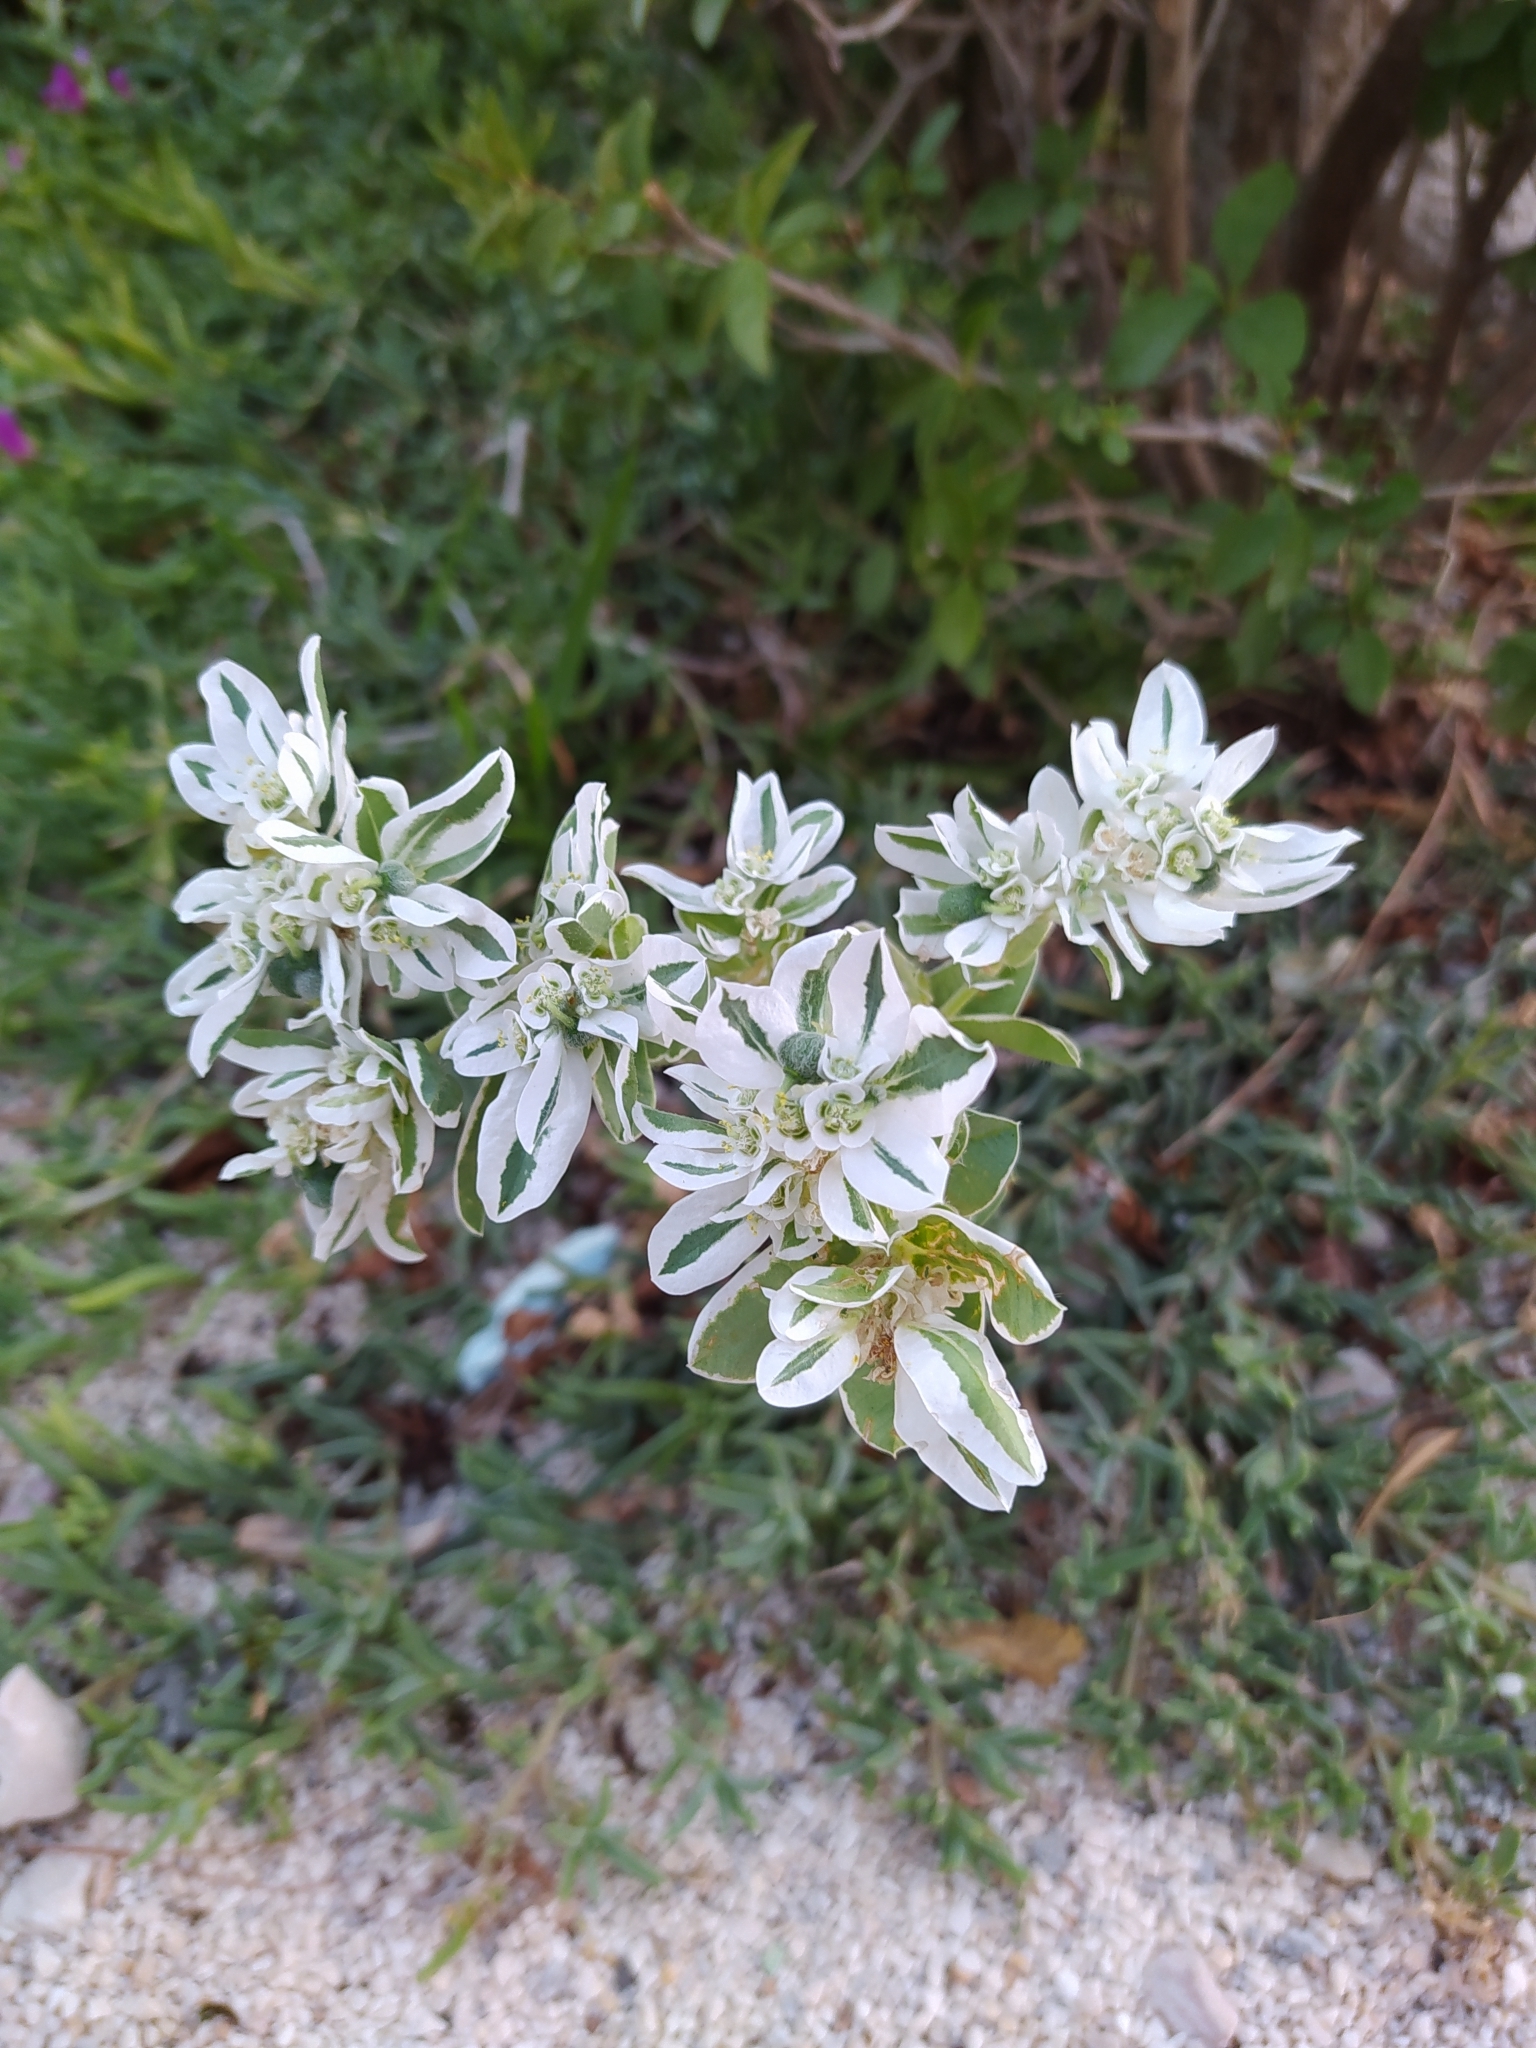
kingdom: Plantae
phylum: Tracheophyta
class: Magnoliopsida
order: Malpighiales
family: Euphorbiaceae
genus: Euphorbia
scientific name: Euphorbia marginata
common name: Ghostweed
